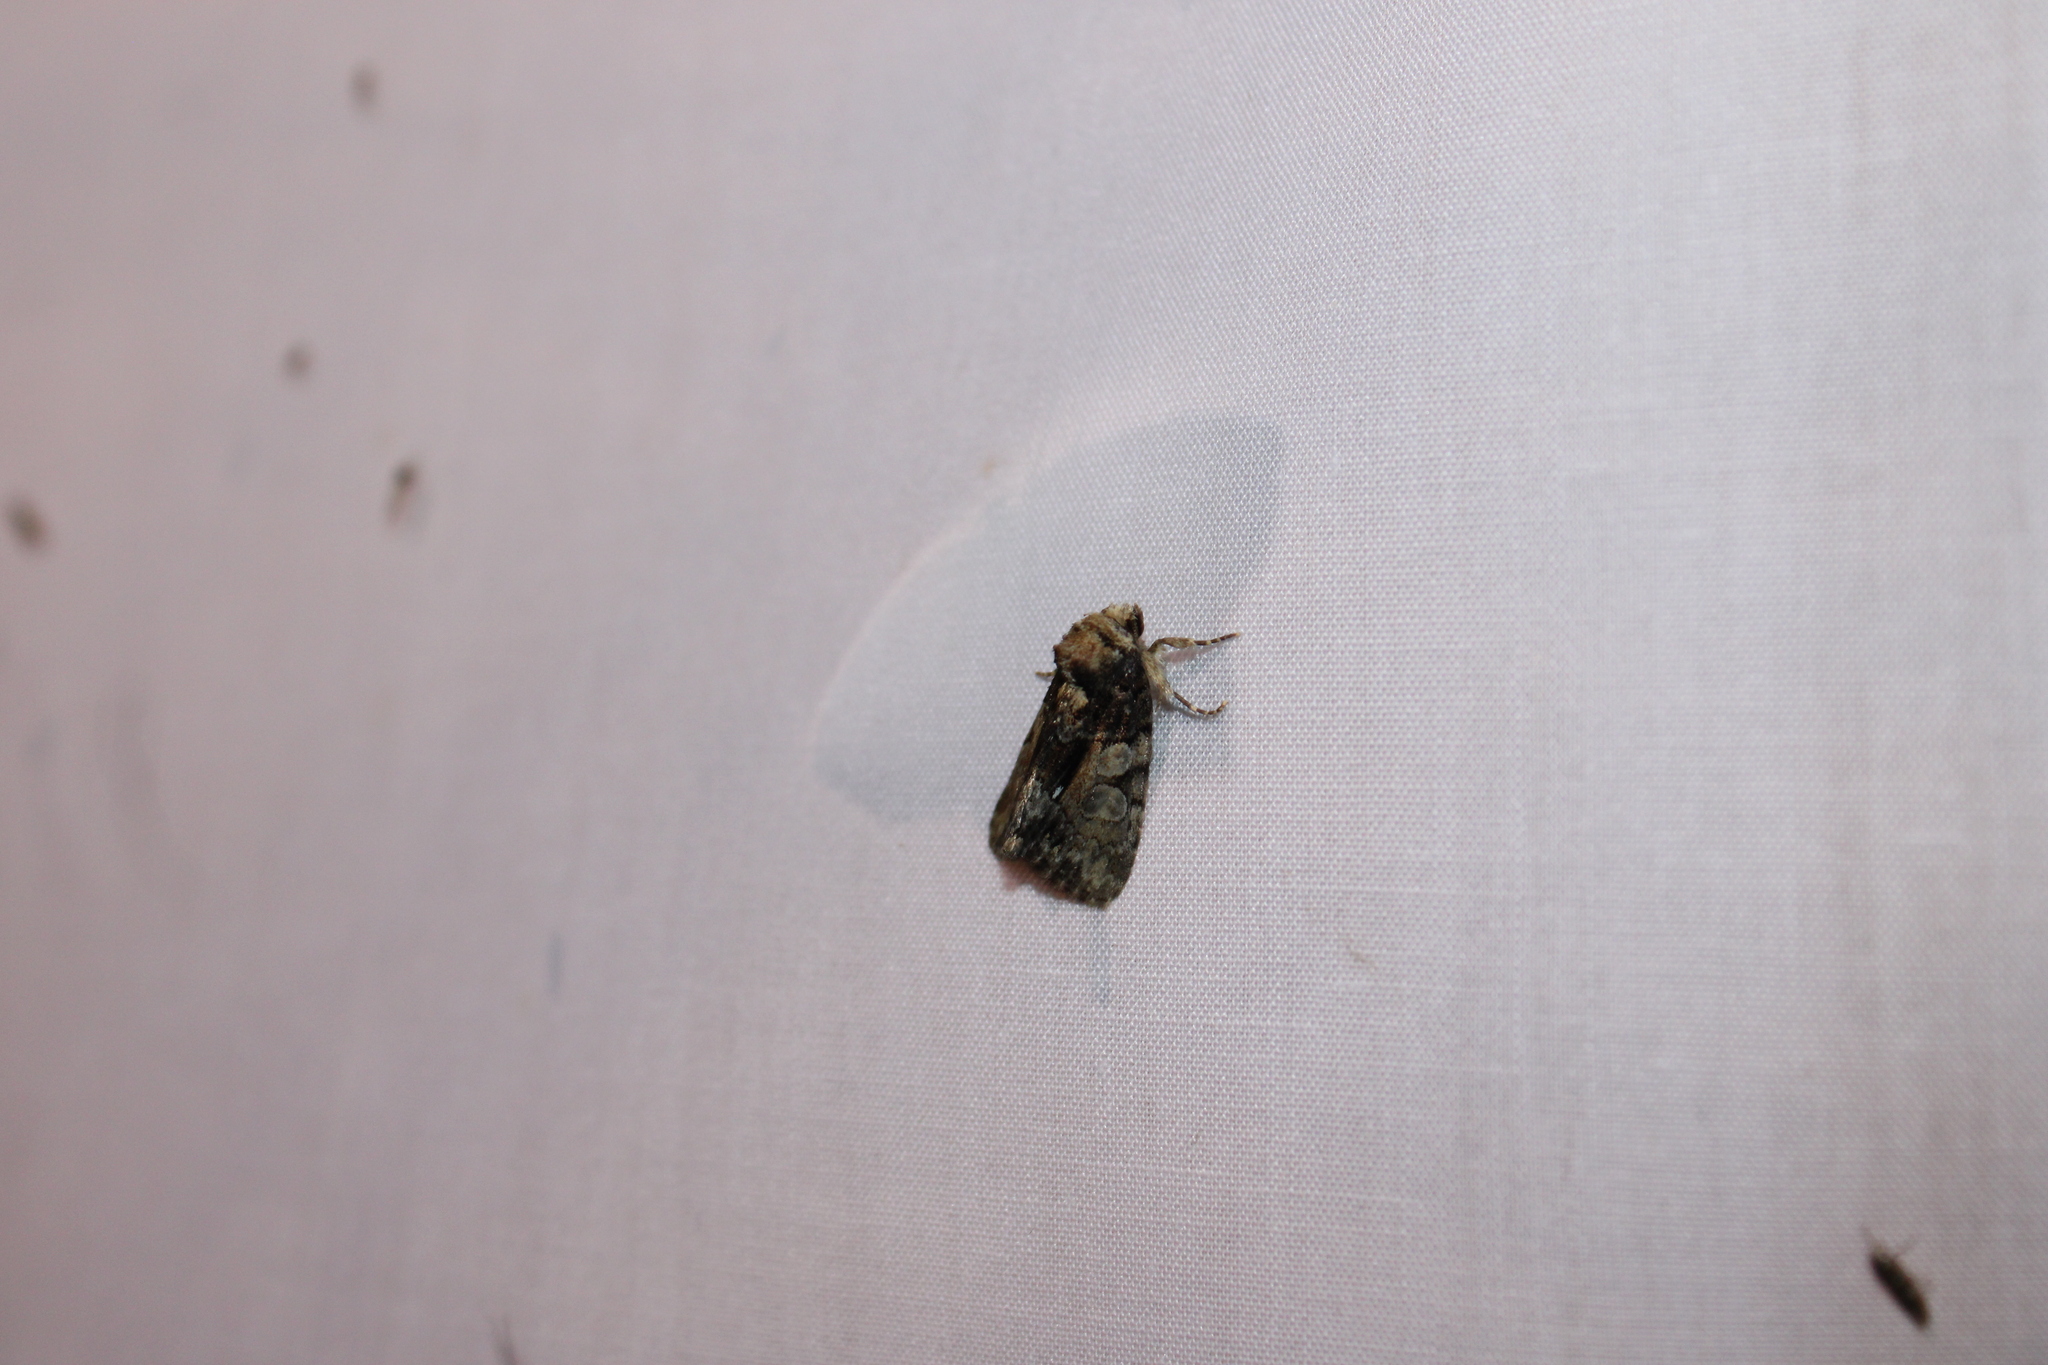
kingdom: Animalia
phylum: Arthropoda
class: Insecta
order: Lepidoptera
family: Noctuidae
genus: Chytonix
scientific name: Chytonix palliatricula
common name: Cloaked marvel
